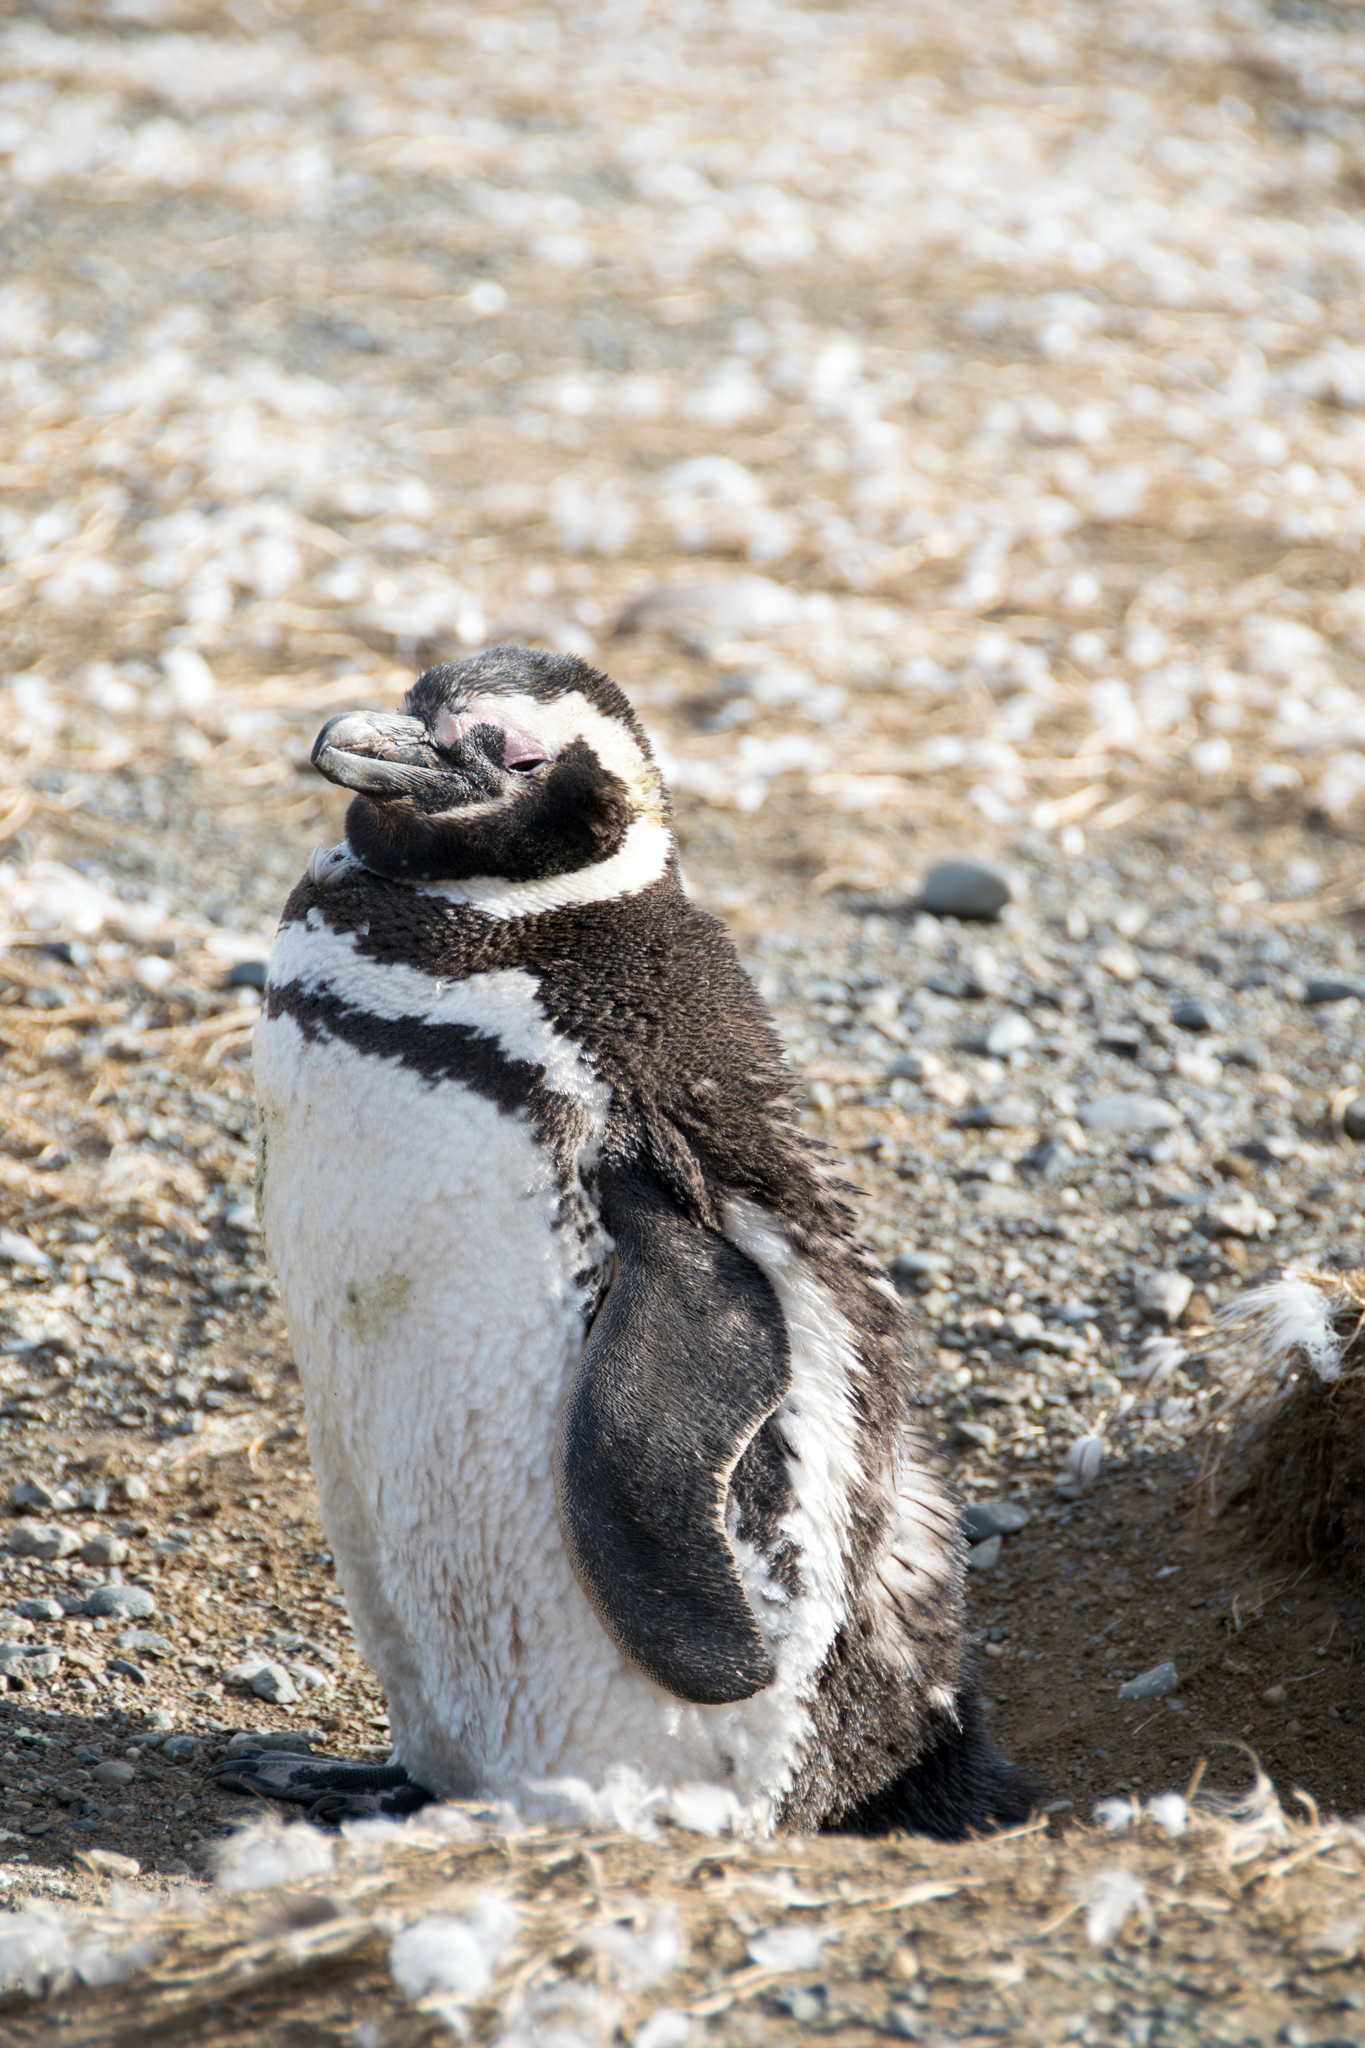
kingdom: Animalia
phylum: Chordata
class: Aves
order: Sphenisciformes
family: Spheniscidae
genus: Spheniscus
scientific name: Spheniscus magellanicus
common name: Magellanic penguin
